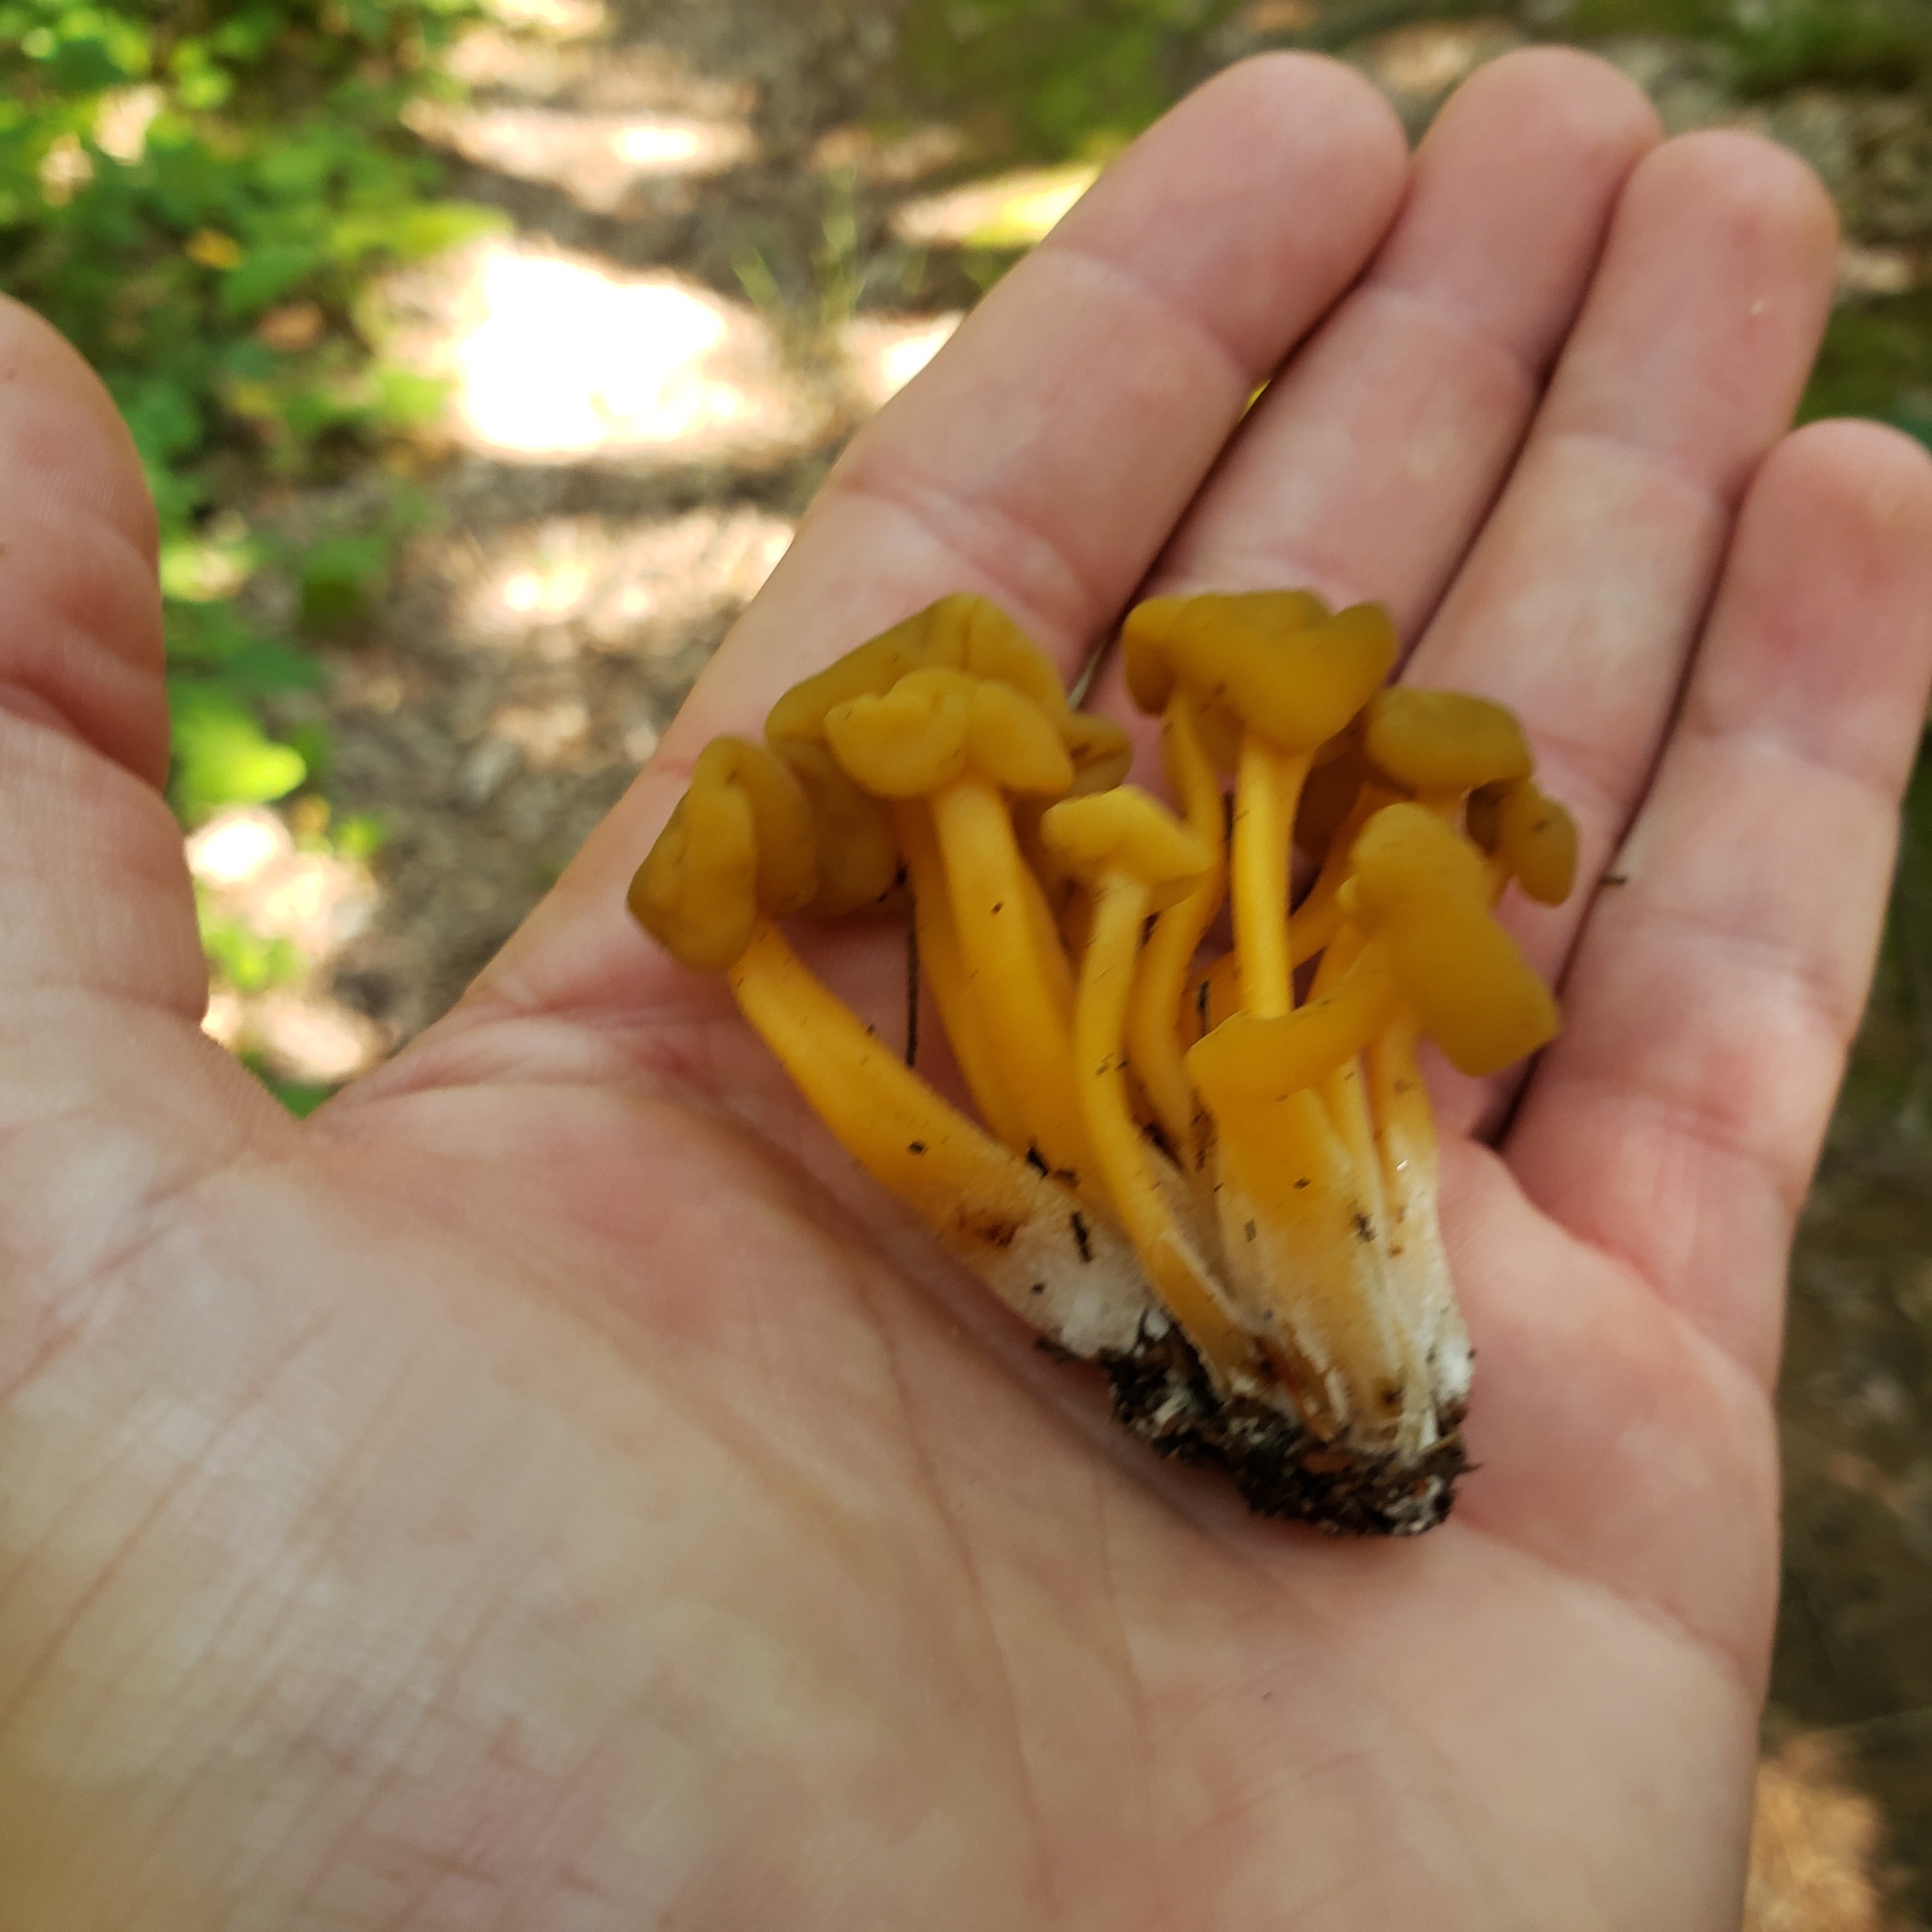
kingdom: Fungi
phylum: Ascomycota
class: Leotiomycetes
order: Leotiales
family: Leotiaceae
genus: Leotia
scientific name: Leotia lubrica
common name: Jellybaby
